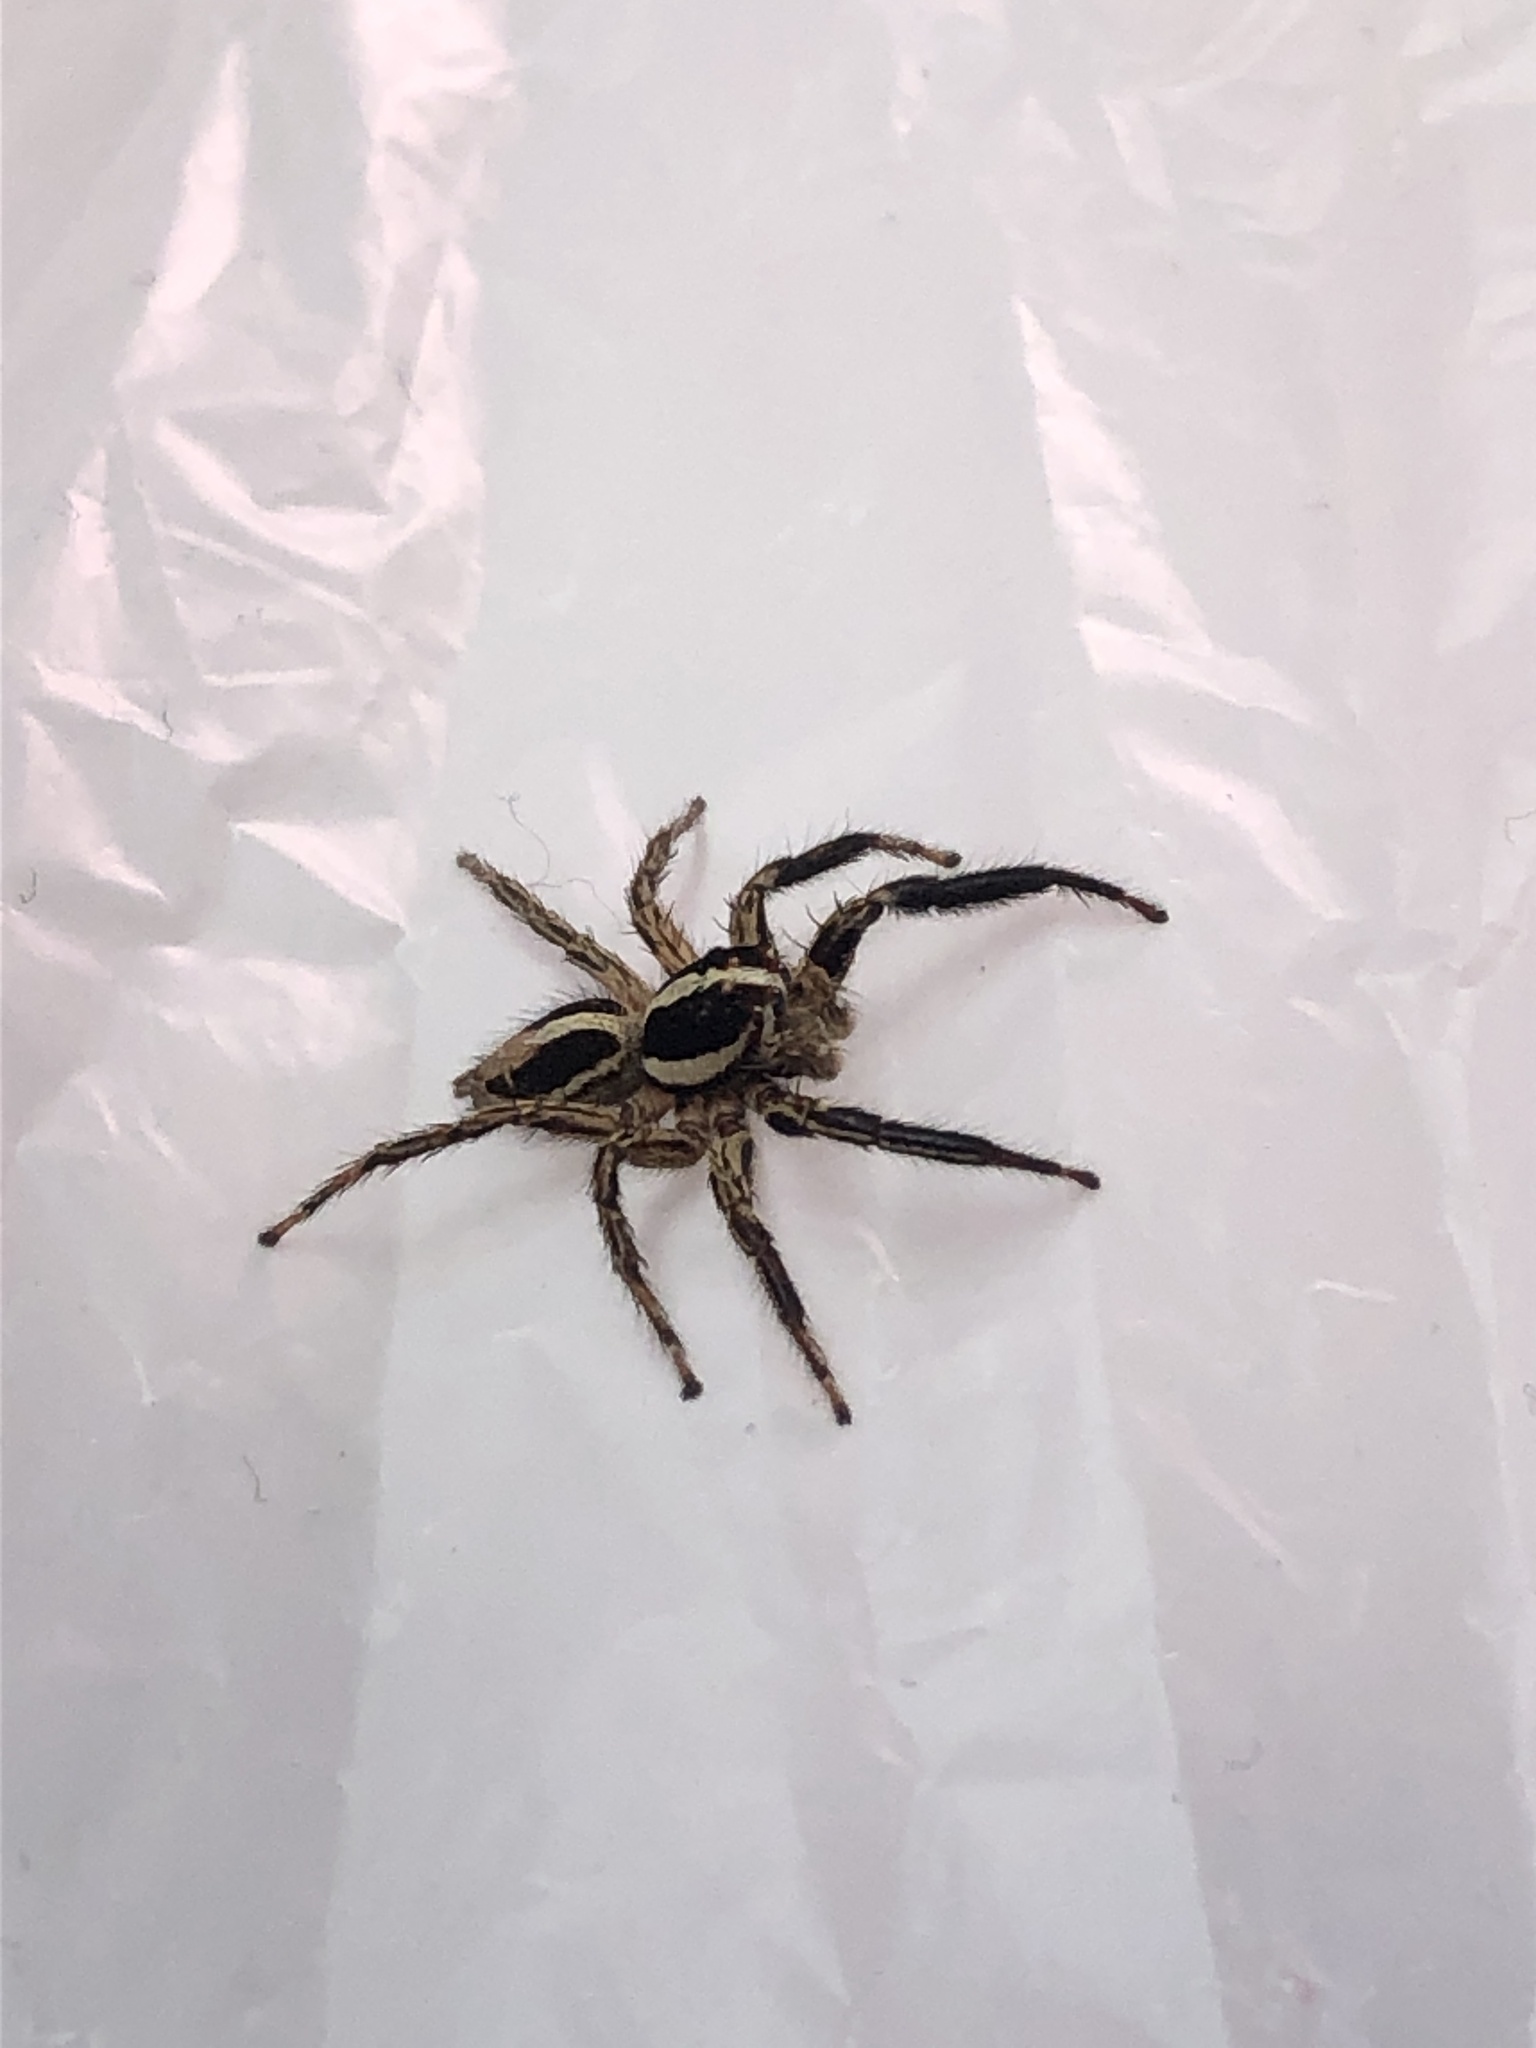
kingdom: Animalia
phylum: Arthropoda
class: Arachnida
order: Araneae
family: Salticidae
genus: Plexippus
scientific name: Plexippus paykulli
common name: Pantropical jumper
